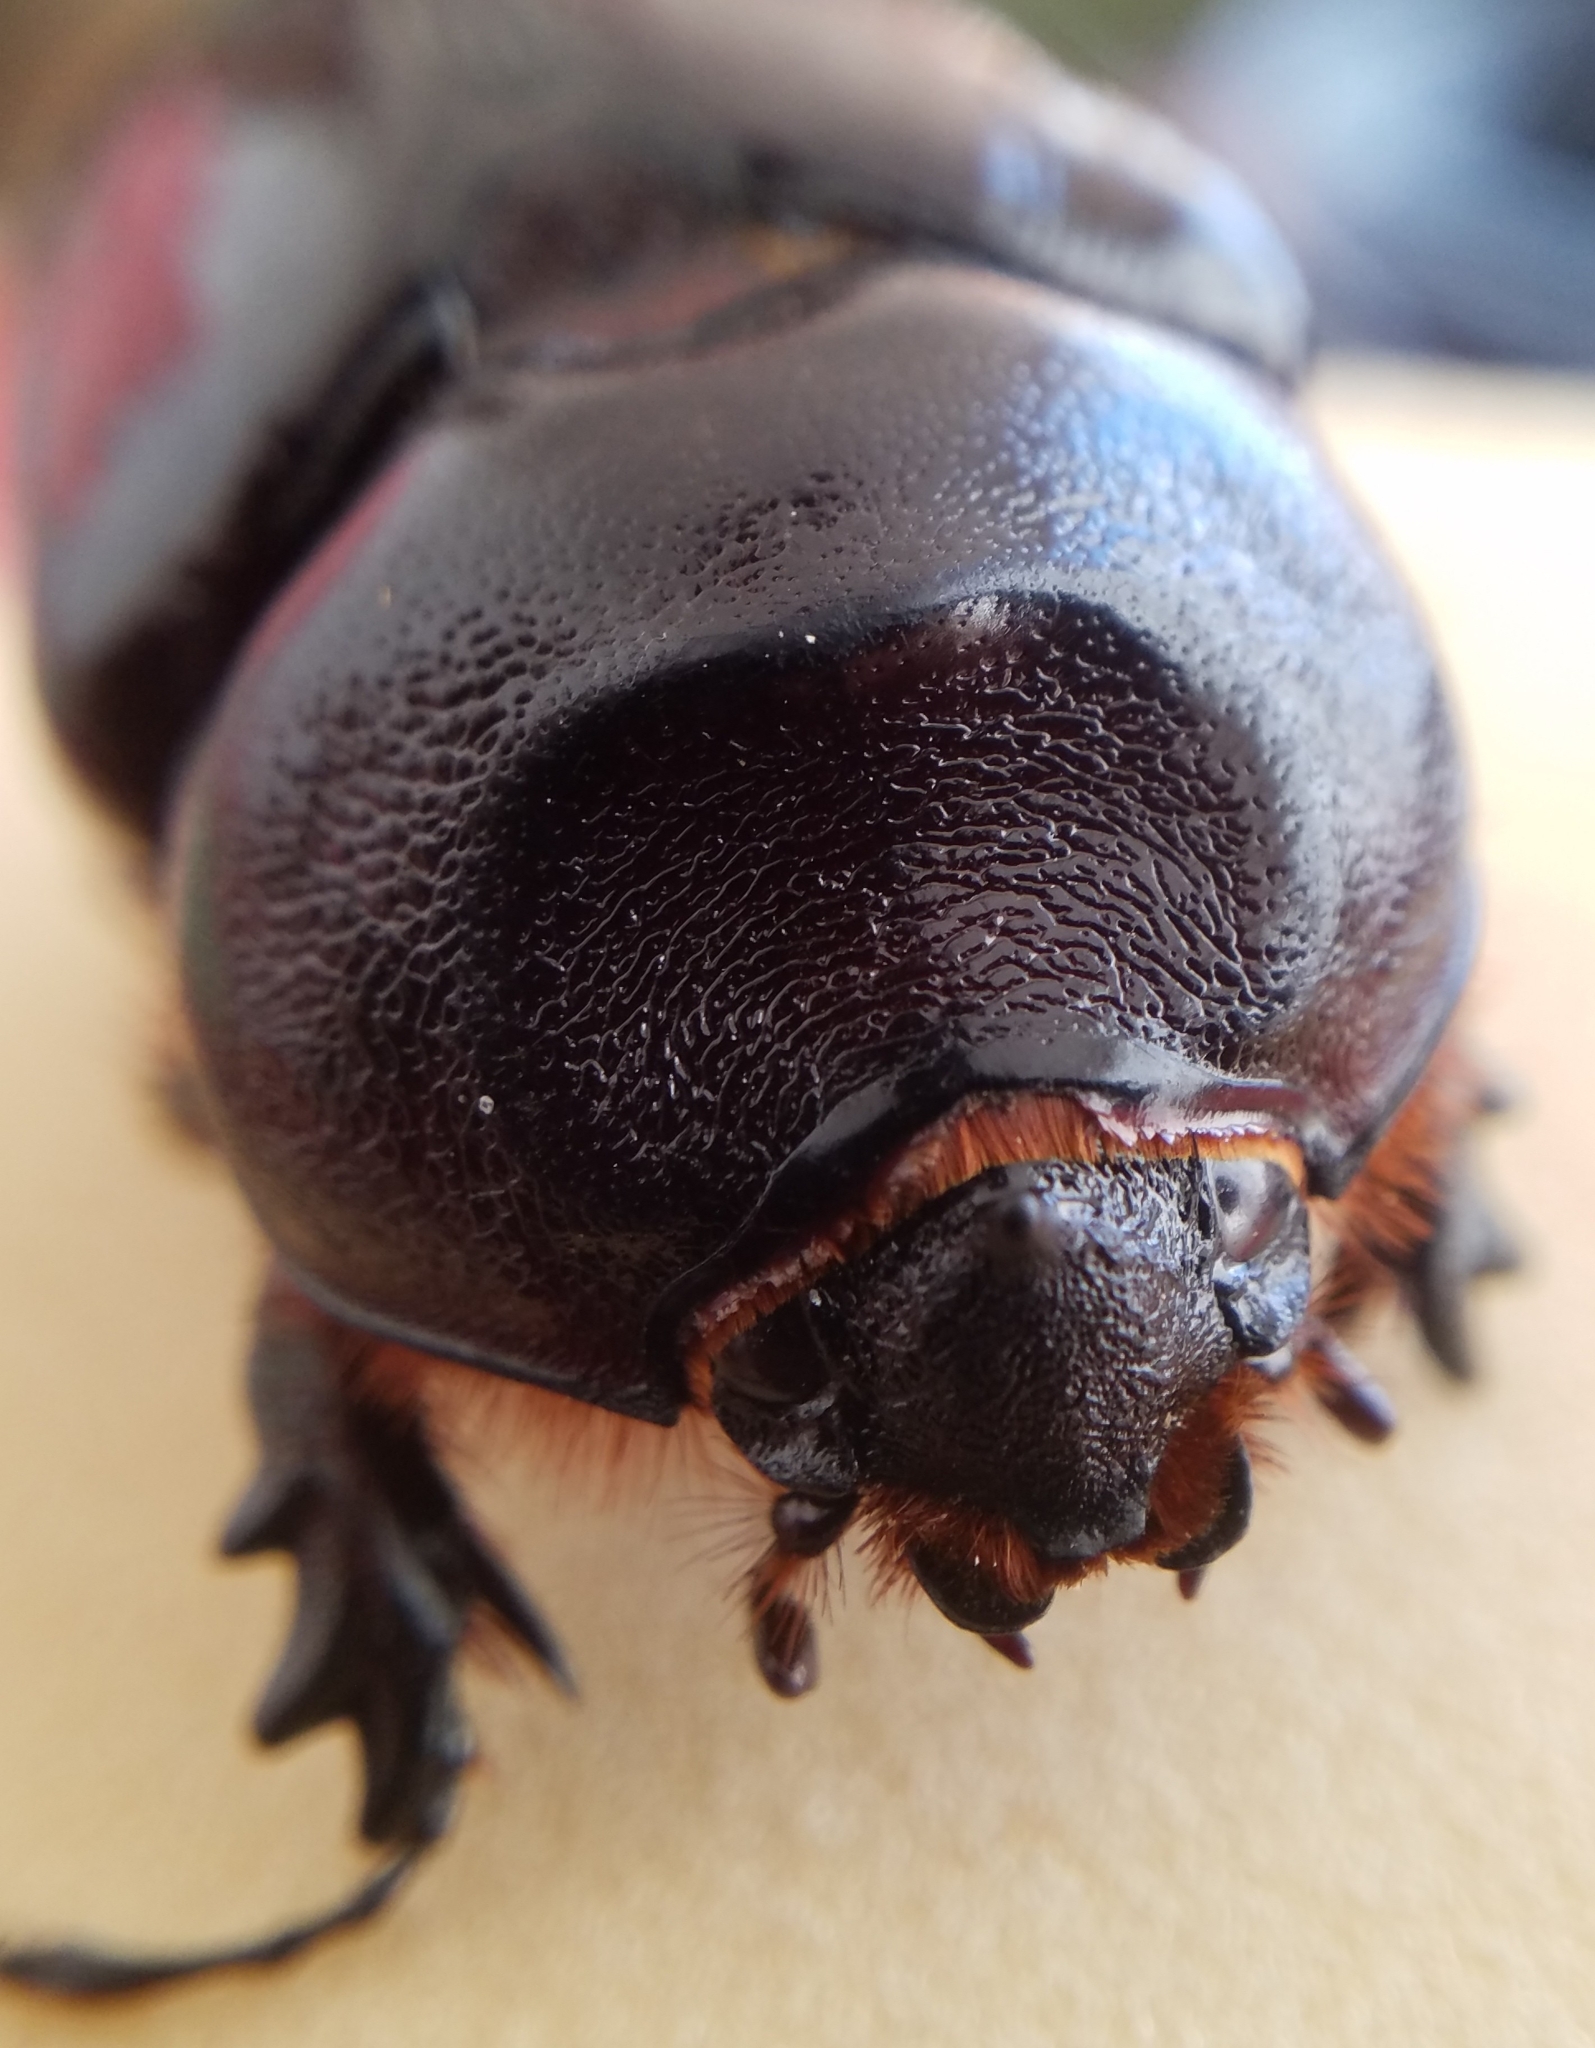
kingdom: Animalia
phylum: Arthropoda
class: Insecta
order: Coleoptera
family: Scarabaeidae
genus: Oryctes
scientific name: Oryctes nasicornis
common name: European rhinoceros beetle
